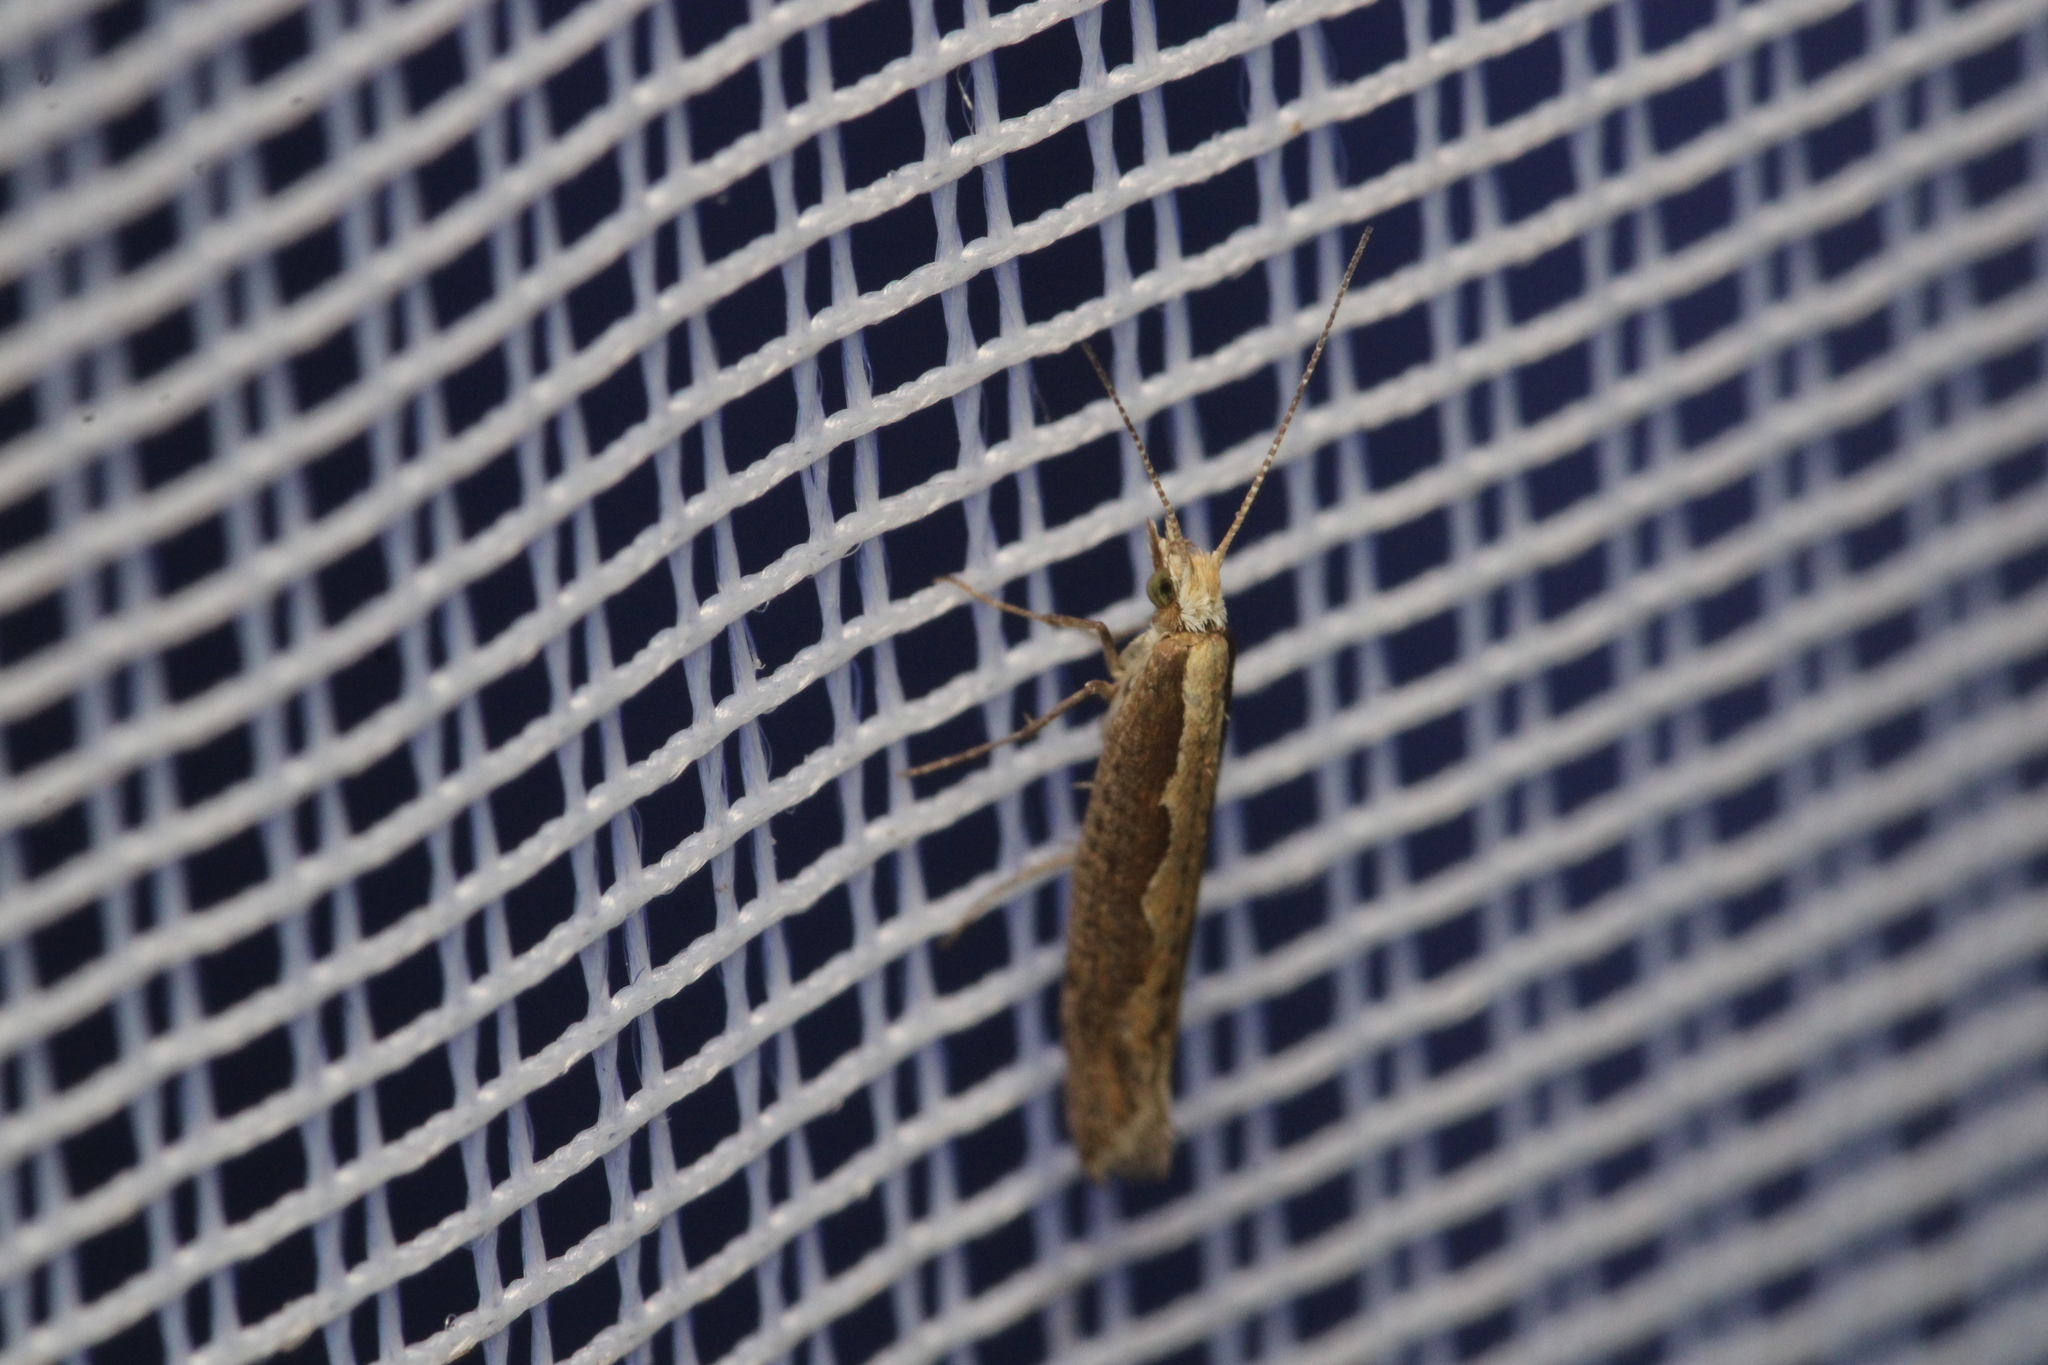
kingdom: Animalia
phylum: Arthropoda
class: Insecta
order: Lepidoptera
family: Plutellidae
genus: Plutella
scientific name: Plutella xylostella
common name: Diamond-back moth
